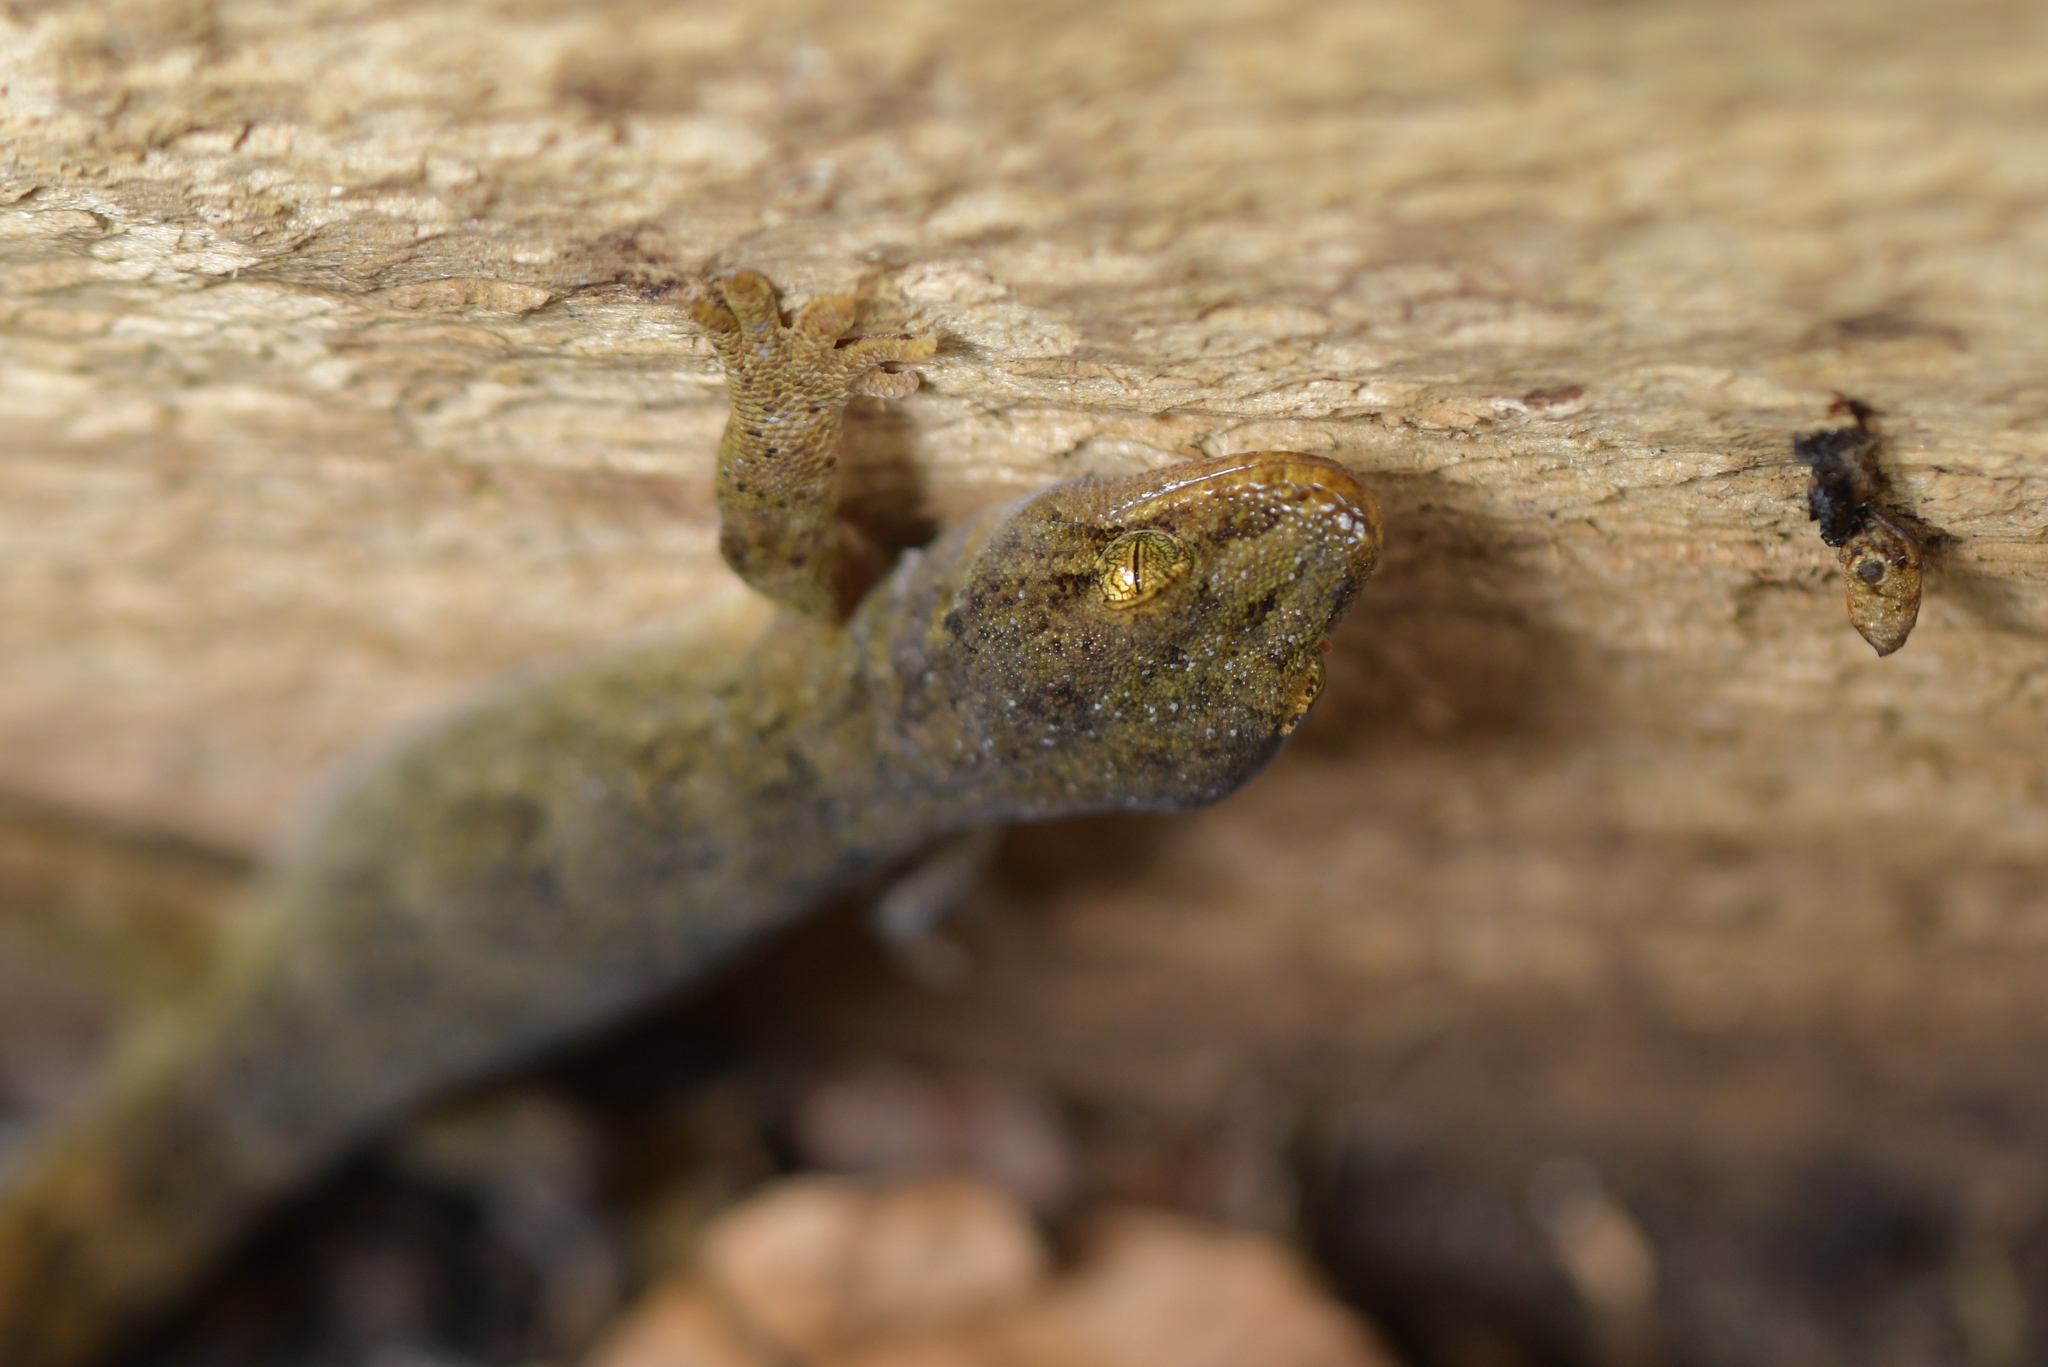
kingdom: Animalia
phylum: Chordata
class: Squamata
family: Diplodactylidae
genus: Woodworthia
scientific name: Woodworthia maculata
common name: Raukawa gecko
